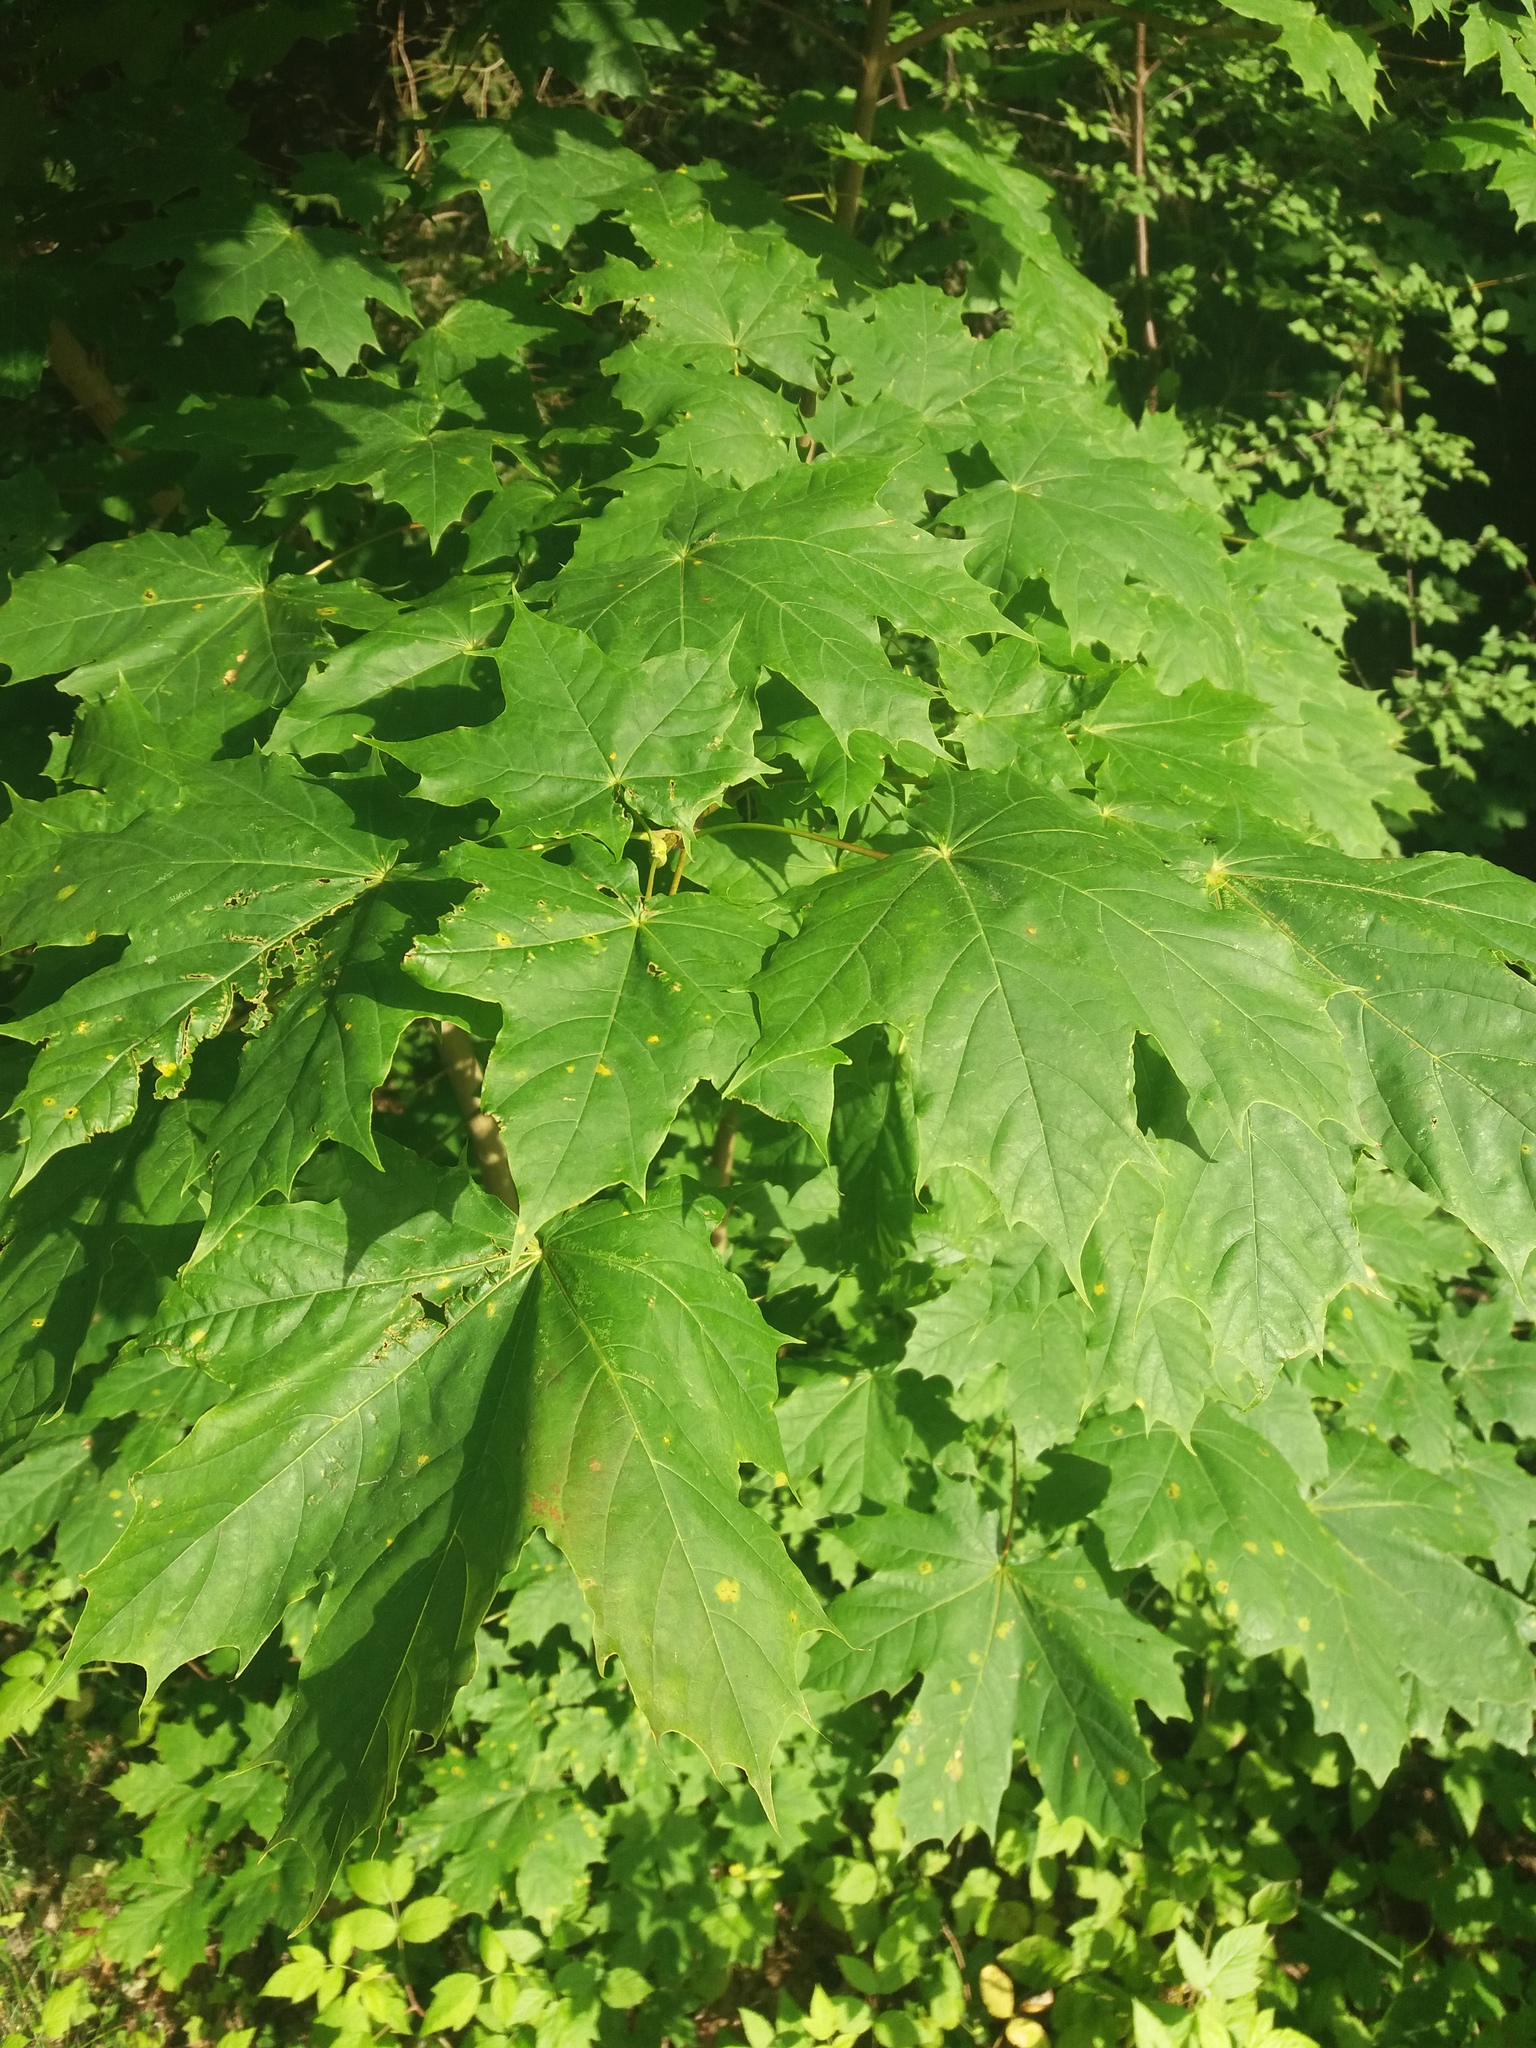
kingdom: Plantae
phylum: Tracheophyta
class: Magnoliopsida
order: Sapindales
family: Sapindaceae
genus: Acer
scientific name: Acer platanoides
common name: Norway maple
